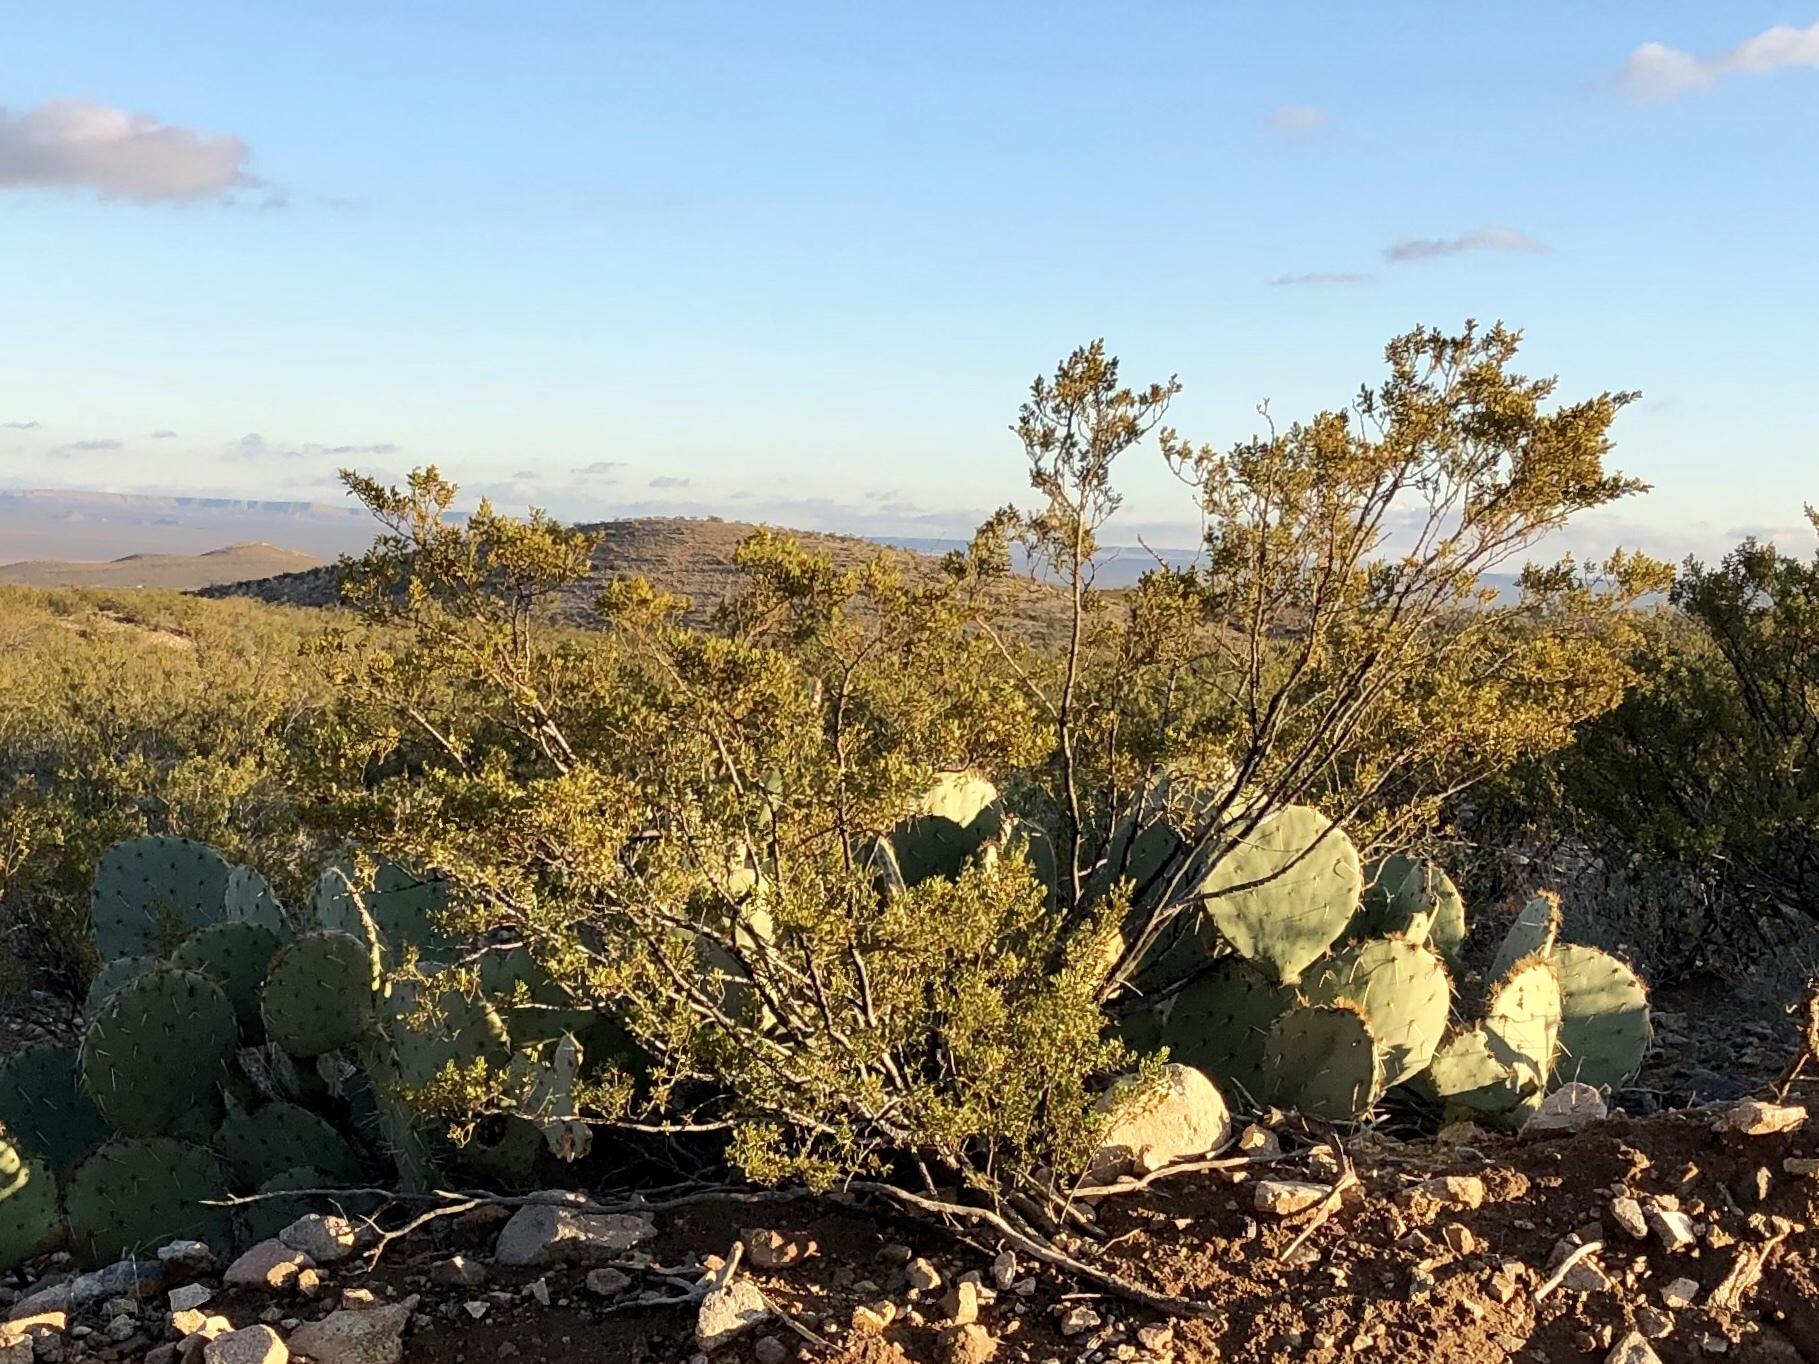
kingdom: Plantae
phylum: Tracheophyta
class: Magnoliopsida
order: Zygophyllales
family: Zygophyllaceae
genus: Larrea
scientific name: Larrea tridentata
